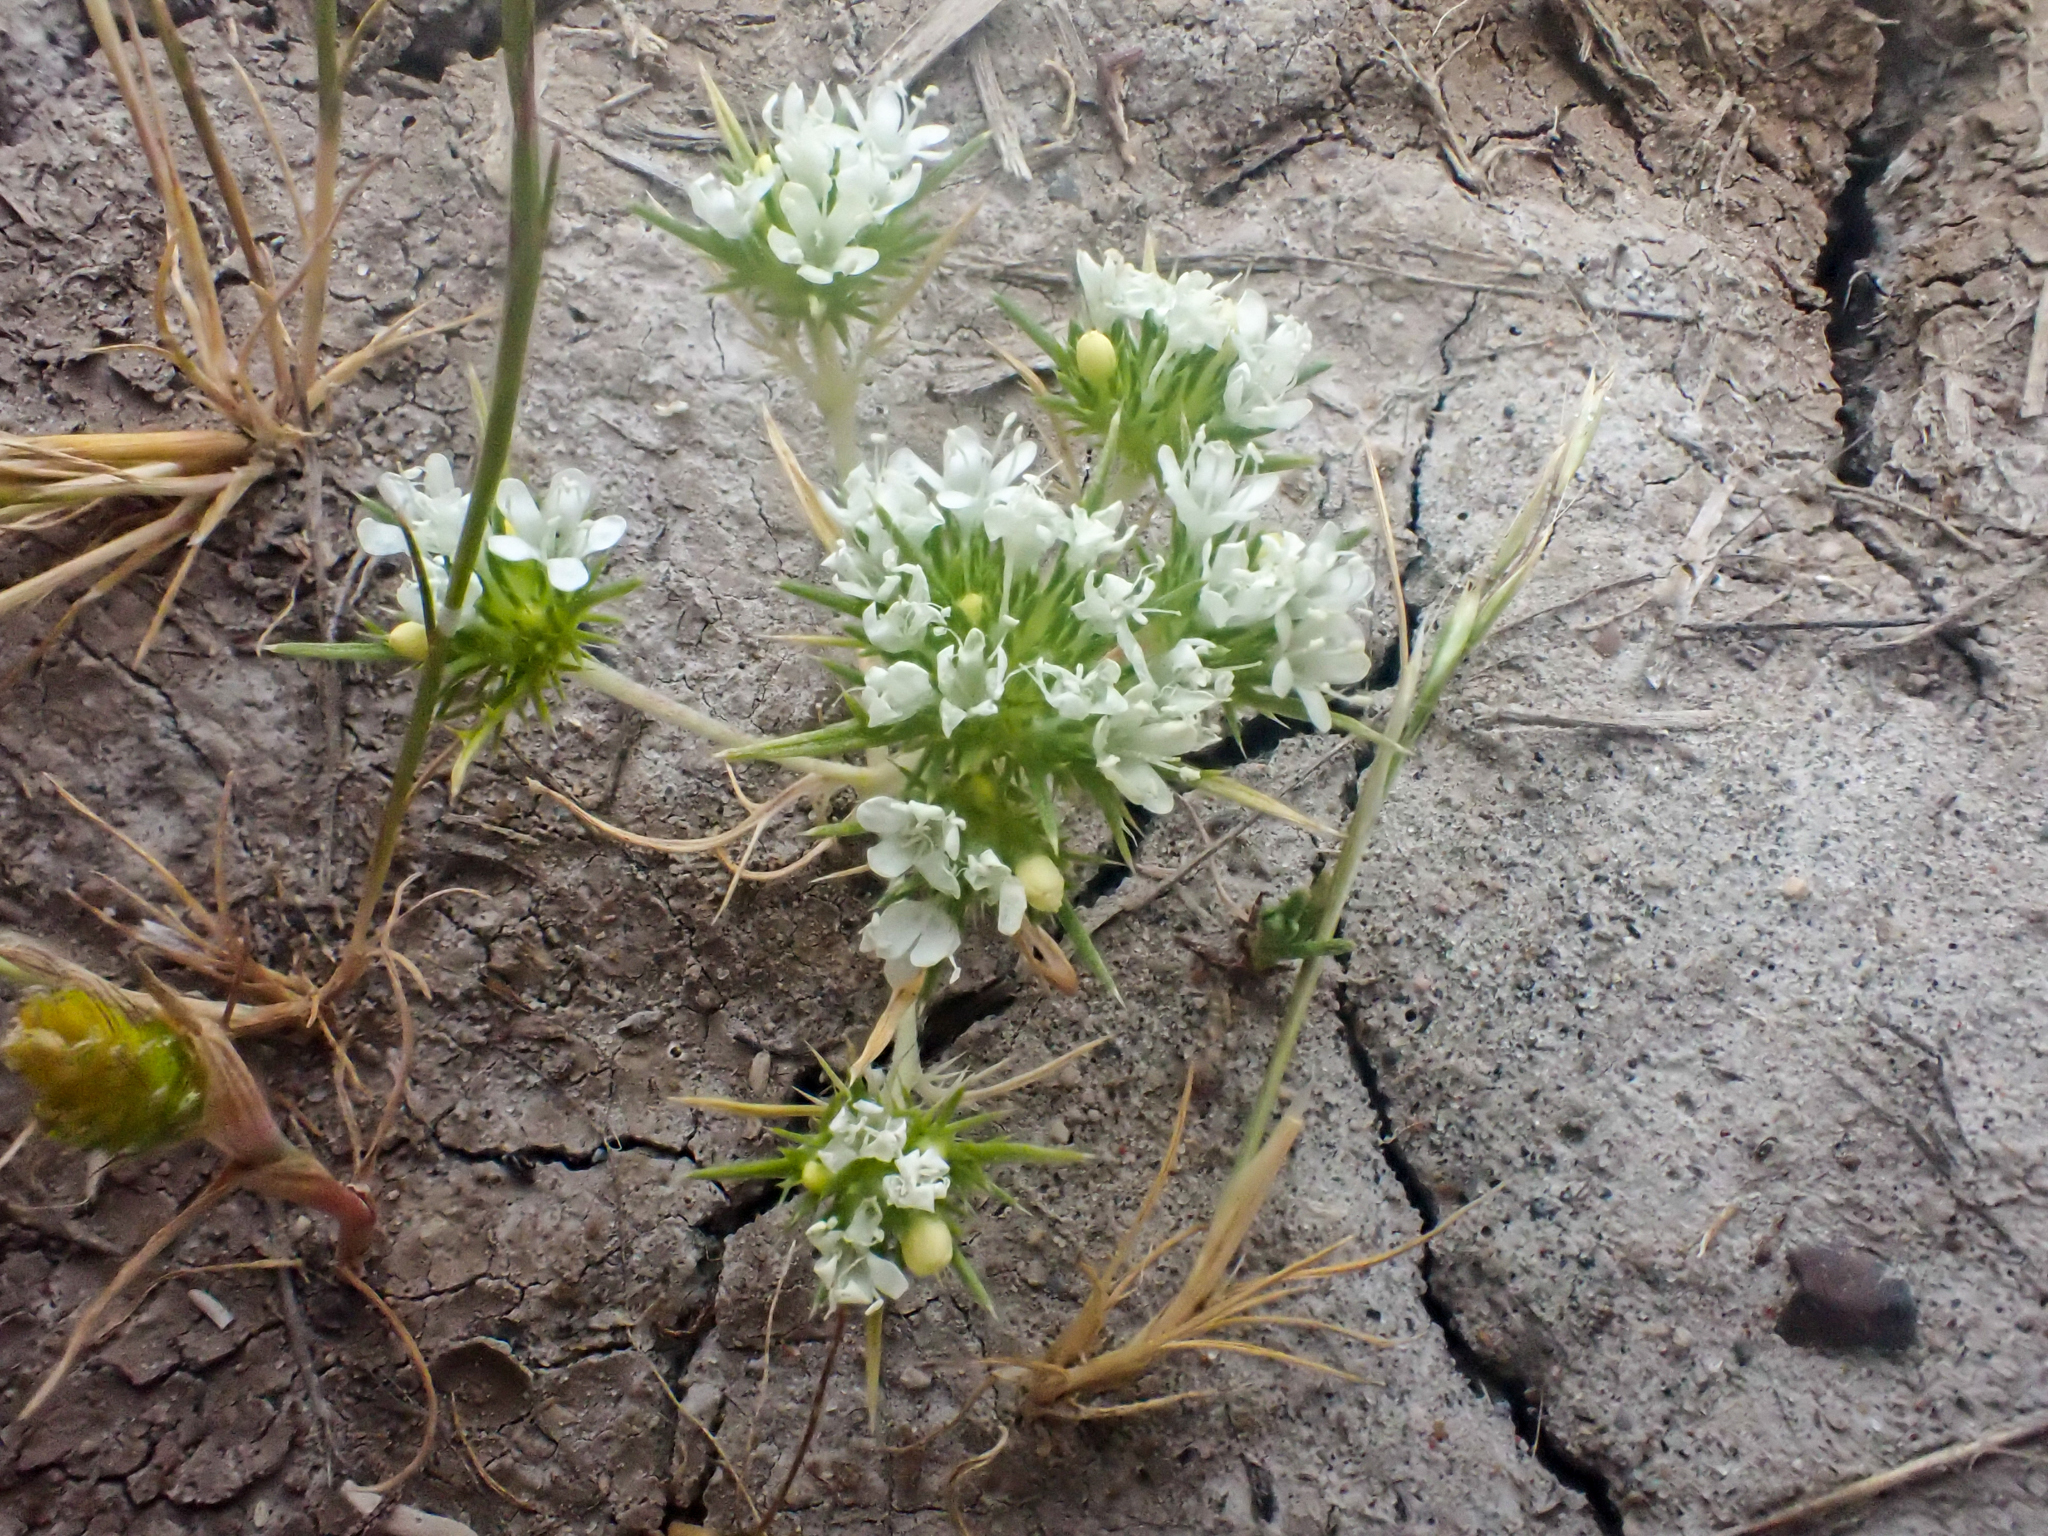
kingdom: Plantae
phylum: Tracheophyta
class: Magnoliopsida
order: Ericales
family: Polemoniaceae
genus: Navarretia
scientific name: Navarretia leucocephala
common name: White-flowered navarretia
